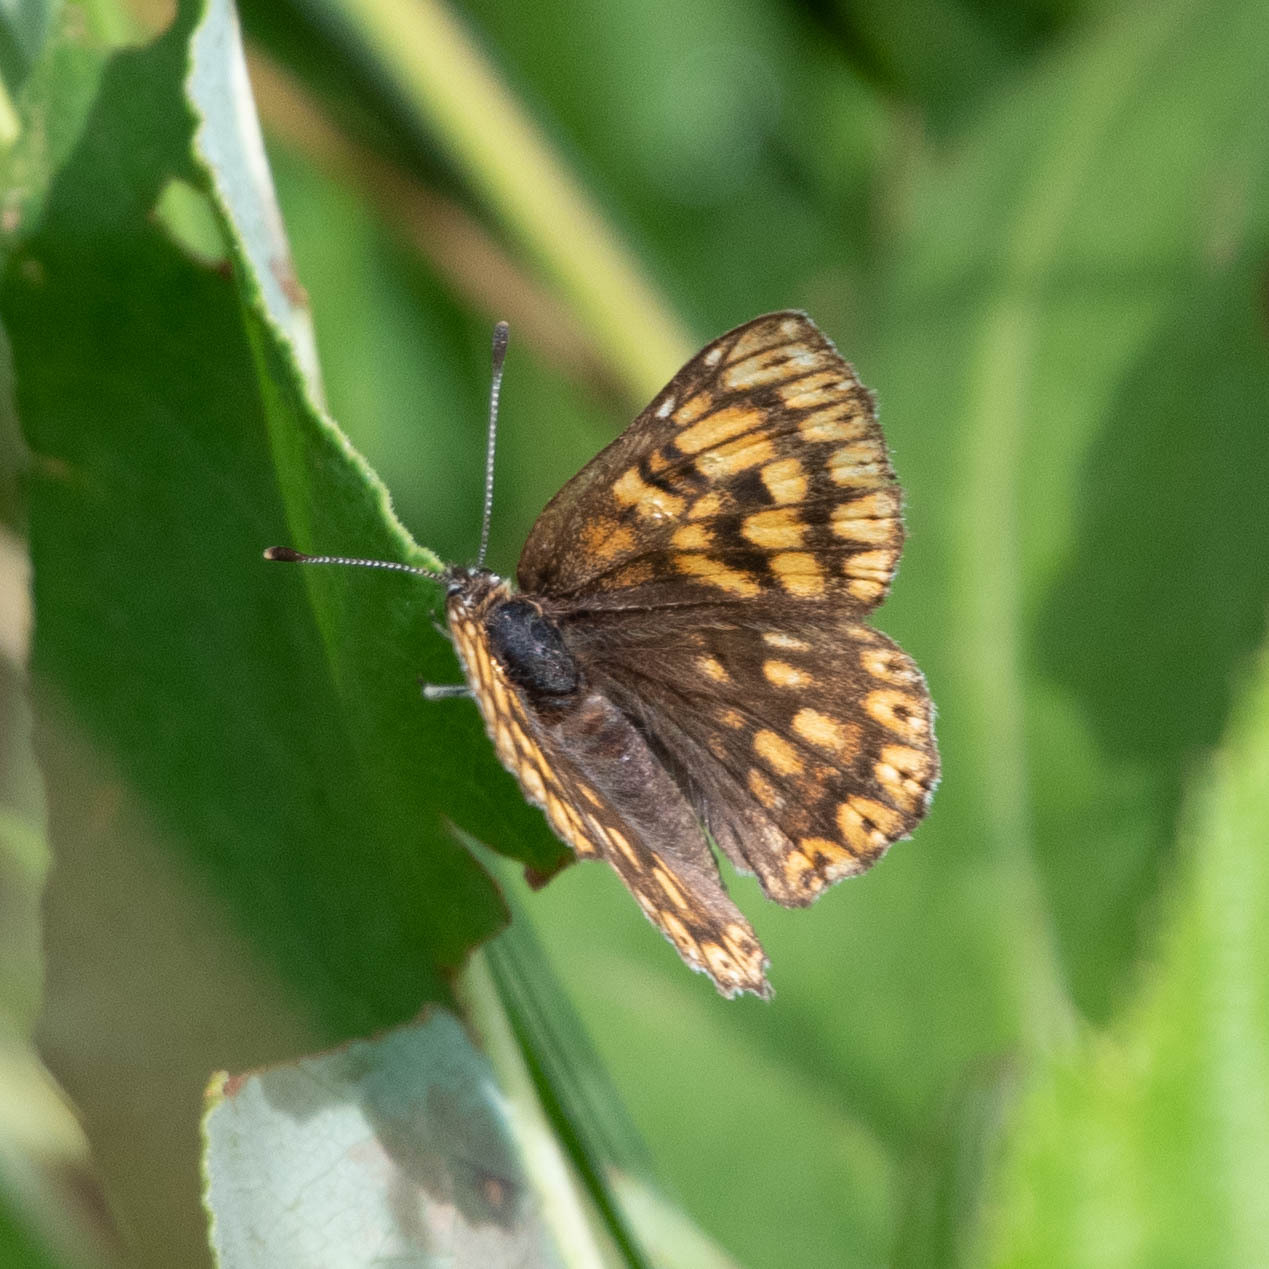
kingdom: Animalia
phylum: Arthropoda
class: Insecta
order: Lepidoptera
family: Riodinidae
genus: Hamearis
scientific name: Hamearis lucina
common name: Duke of burgundy fritillary
